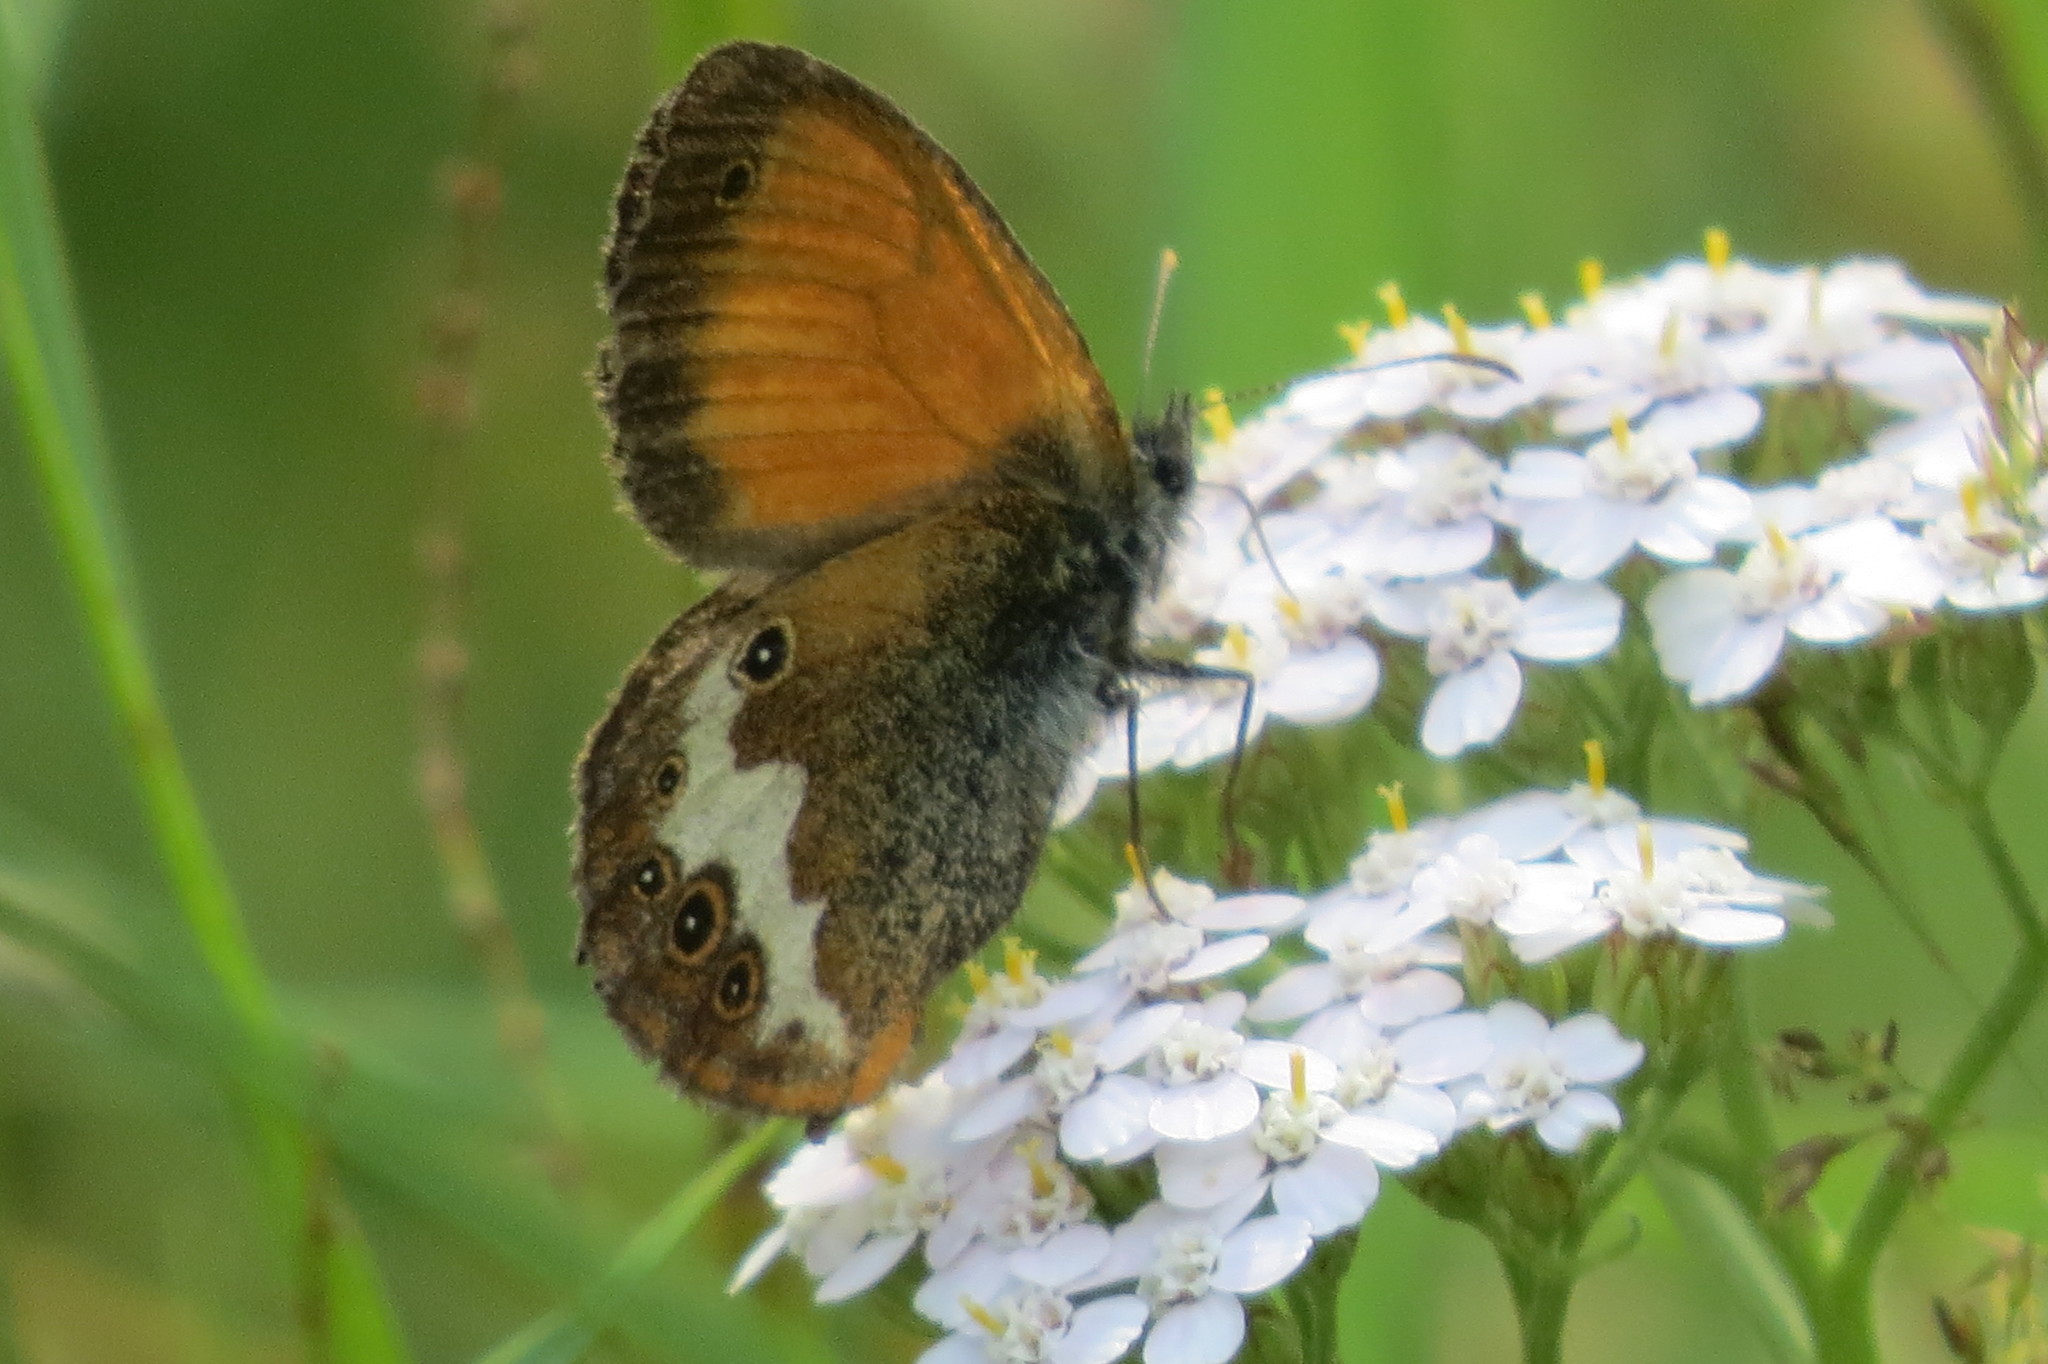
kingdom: Animalia
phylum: Arthropoda
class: Insecta
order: Lepidoptera
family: Nymphalidae
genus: Coenonympha
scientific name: Coenonympha arcania
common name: Pearly heath
